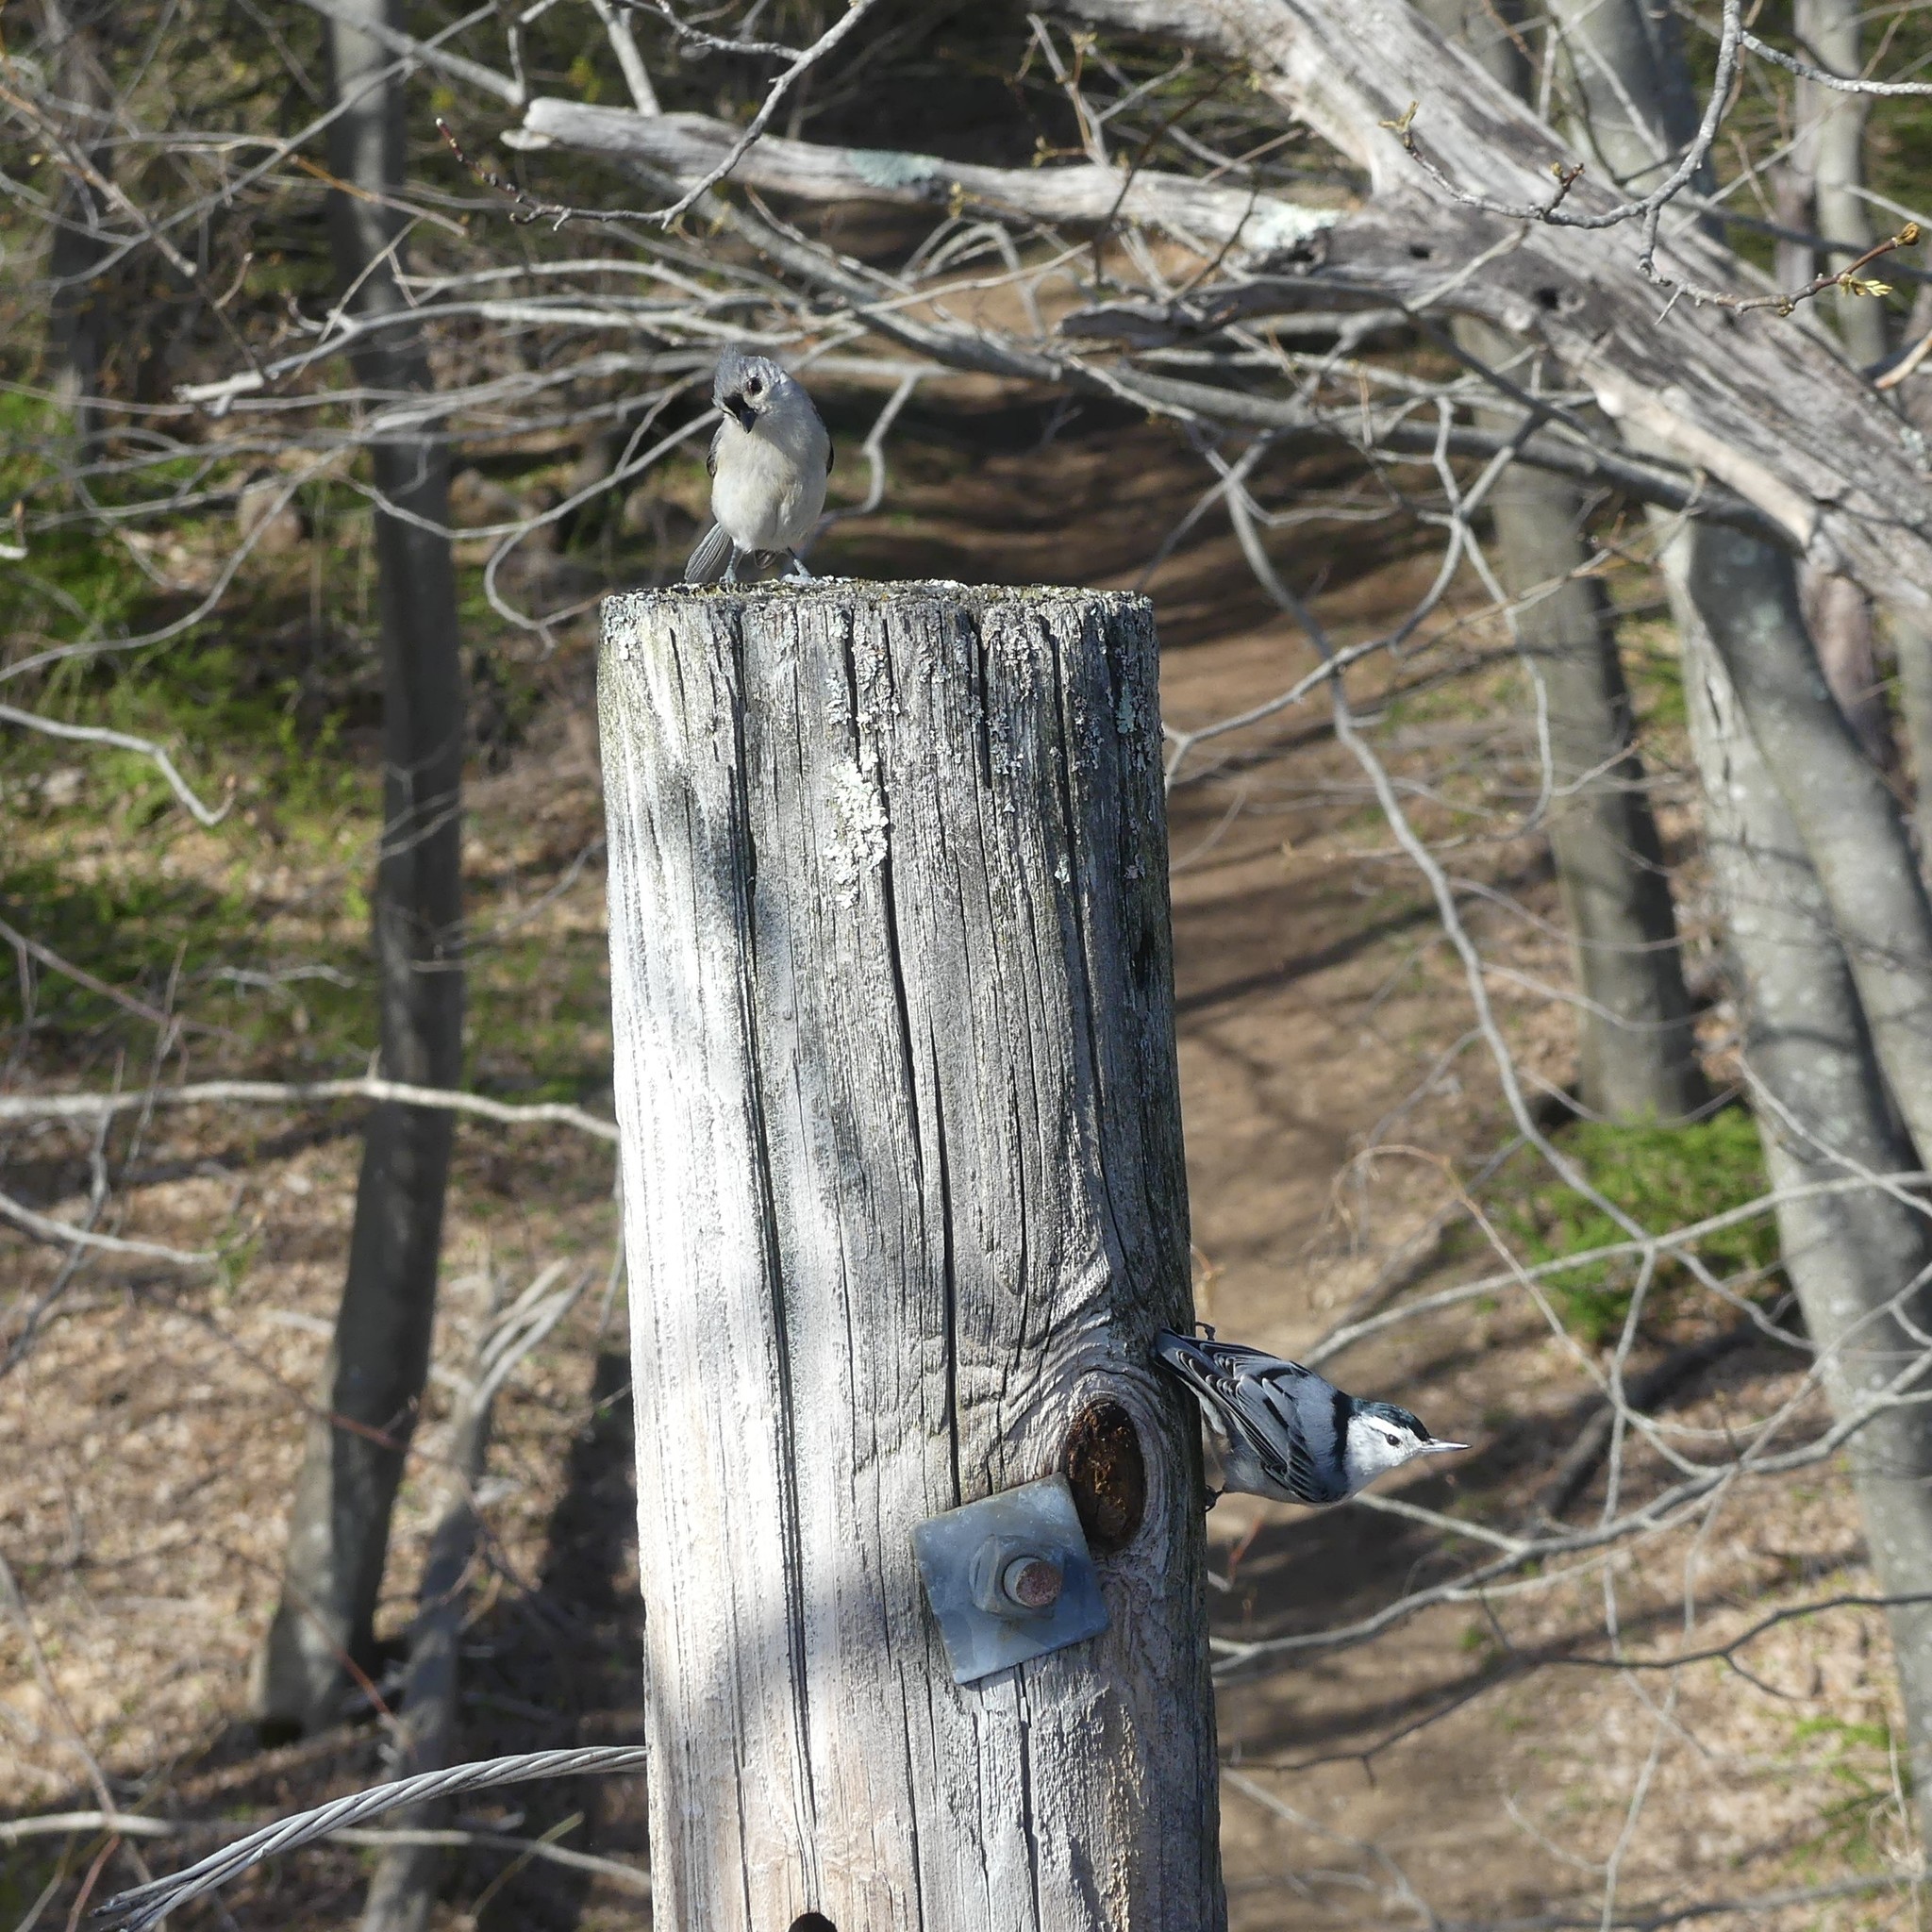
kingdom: Animalia
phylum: Chordata
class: Aves
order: Passeriformes
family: Sittidae
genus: Sitta
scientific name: Sitta carolinensis
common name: White-breasted nuthatch
